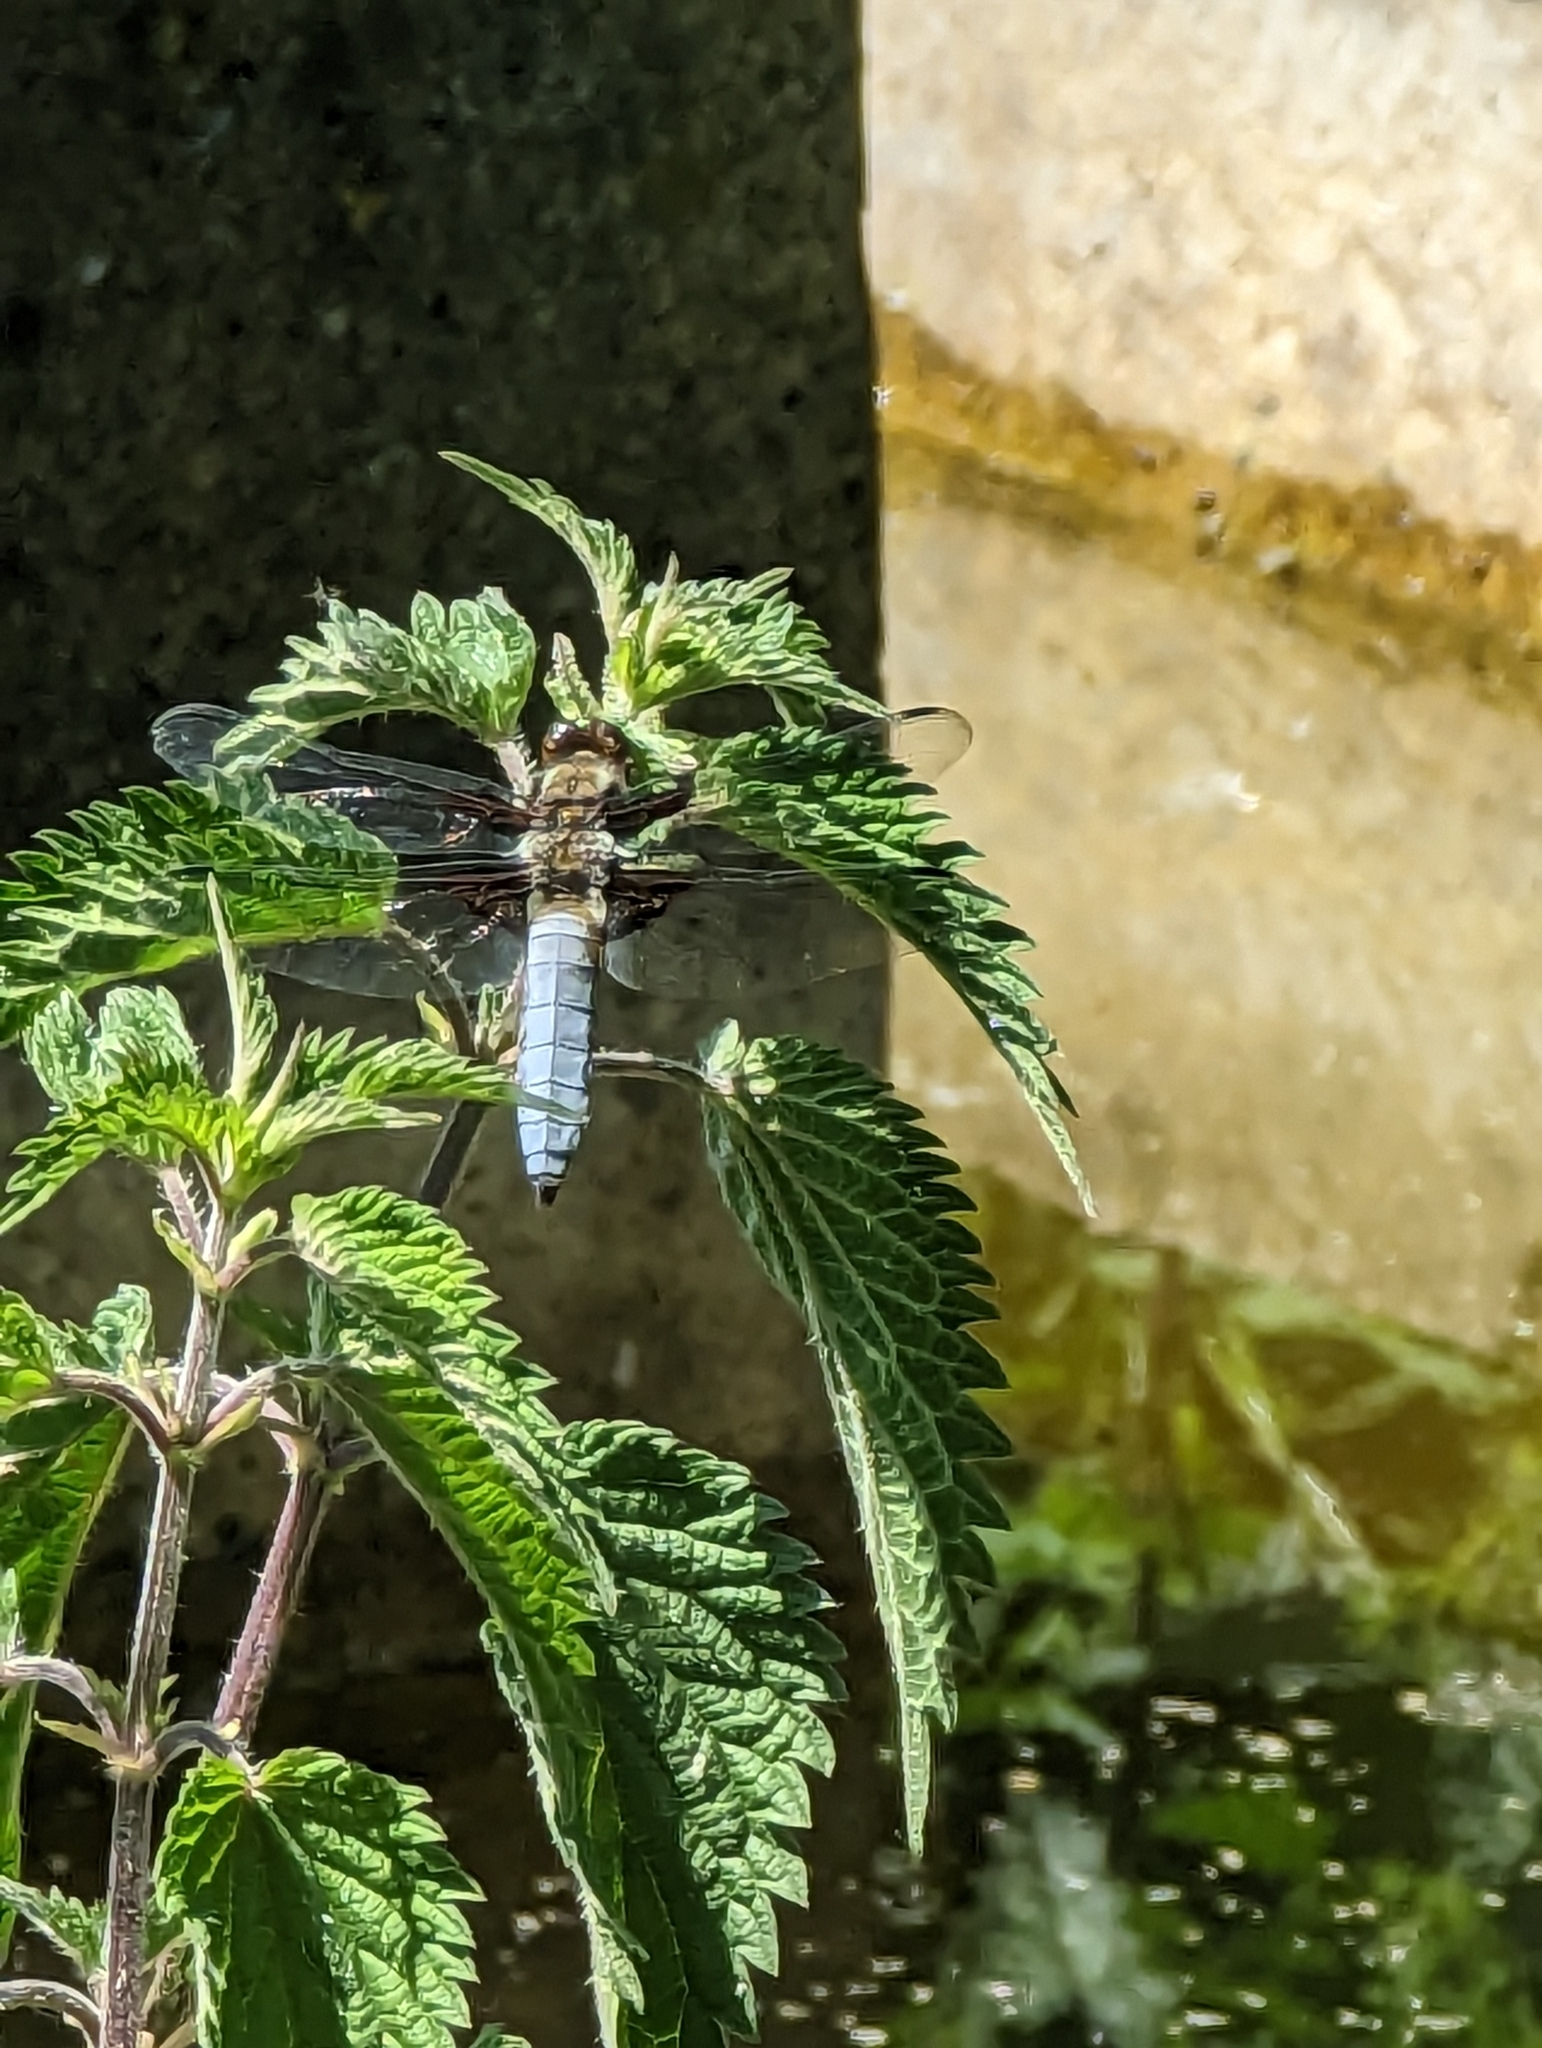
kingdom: Animalia
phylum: Arthropoda
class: Insecta
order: Odonata
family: Libellulidae
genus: Libellula
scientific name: Libellula depressa
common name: Broad-bodied chaser
